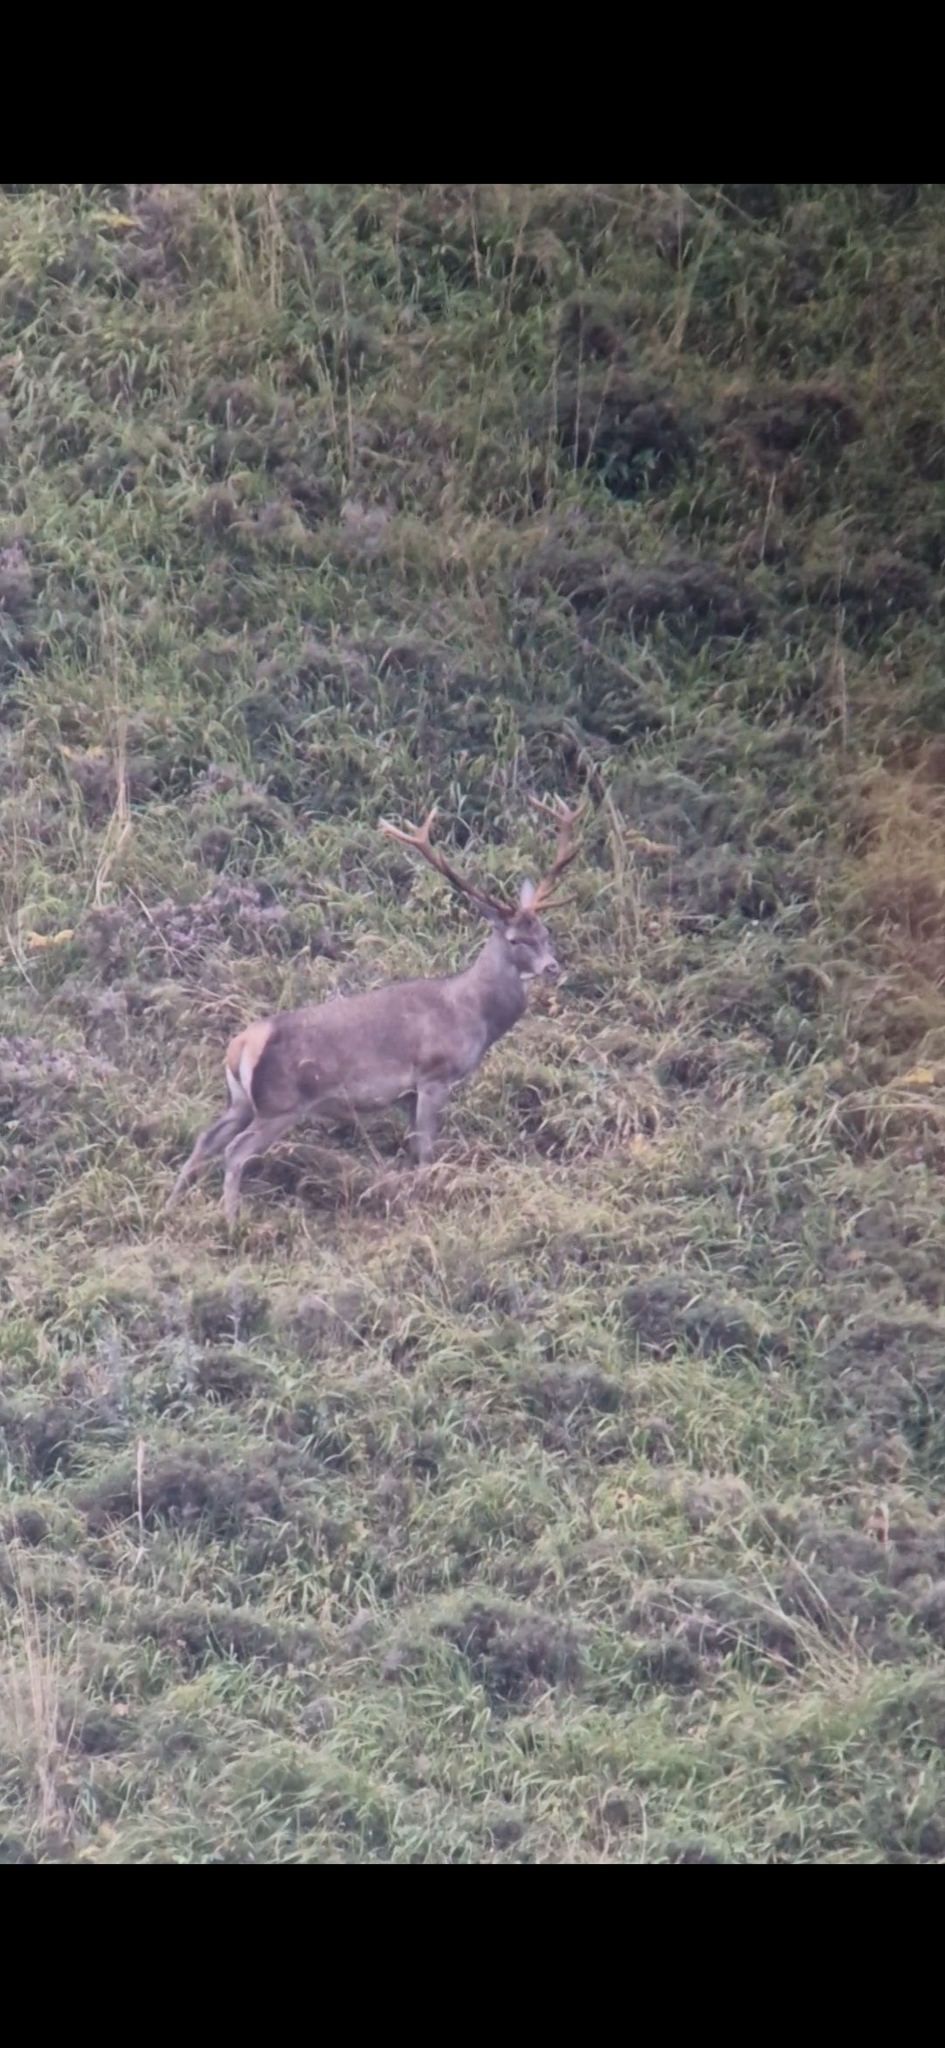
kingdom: Animalia
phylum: Chordata
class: Mammalia
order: Artiodactyla
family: Cervidae
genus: Cervus
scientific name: Cervus elaphus
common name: Red deer
